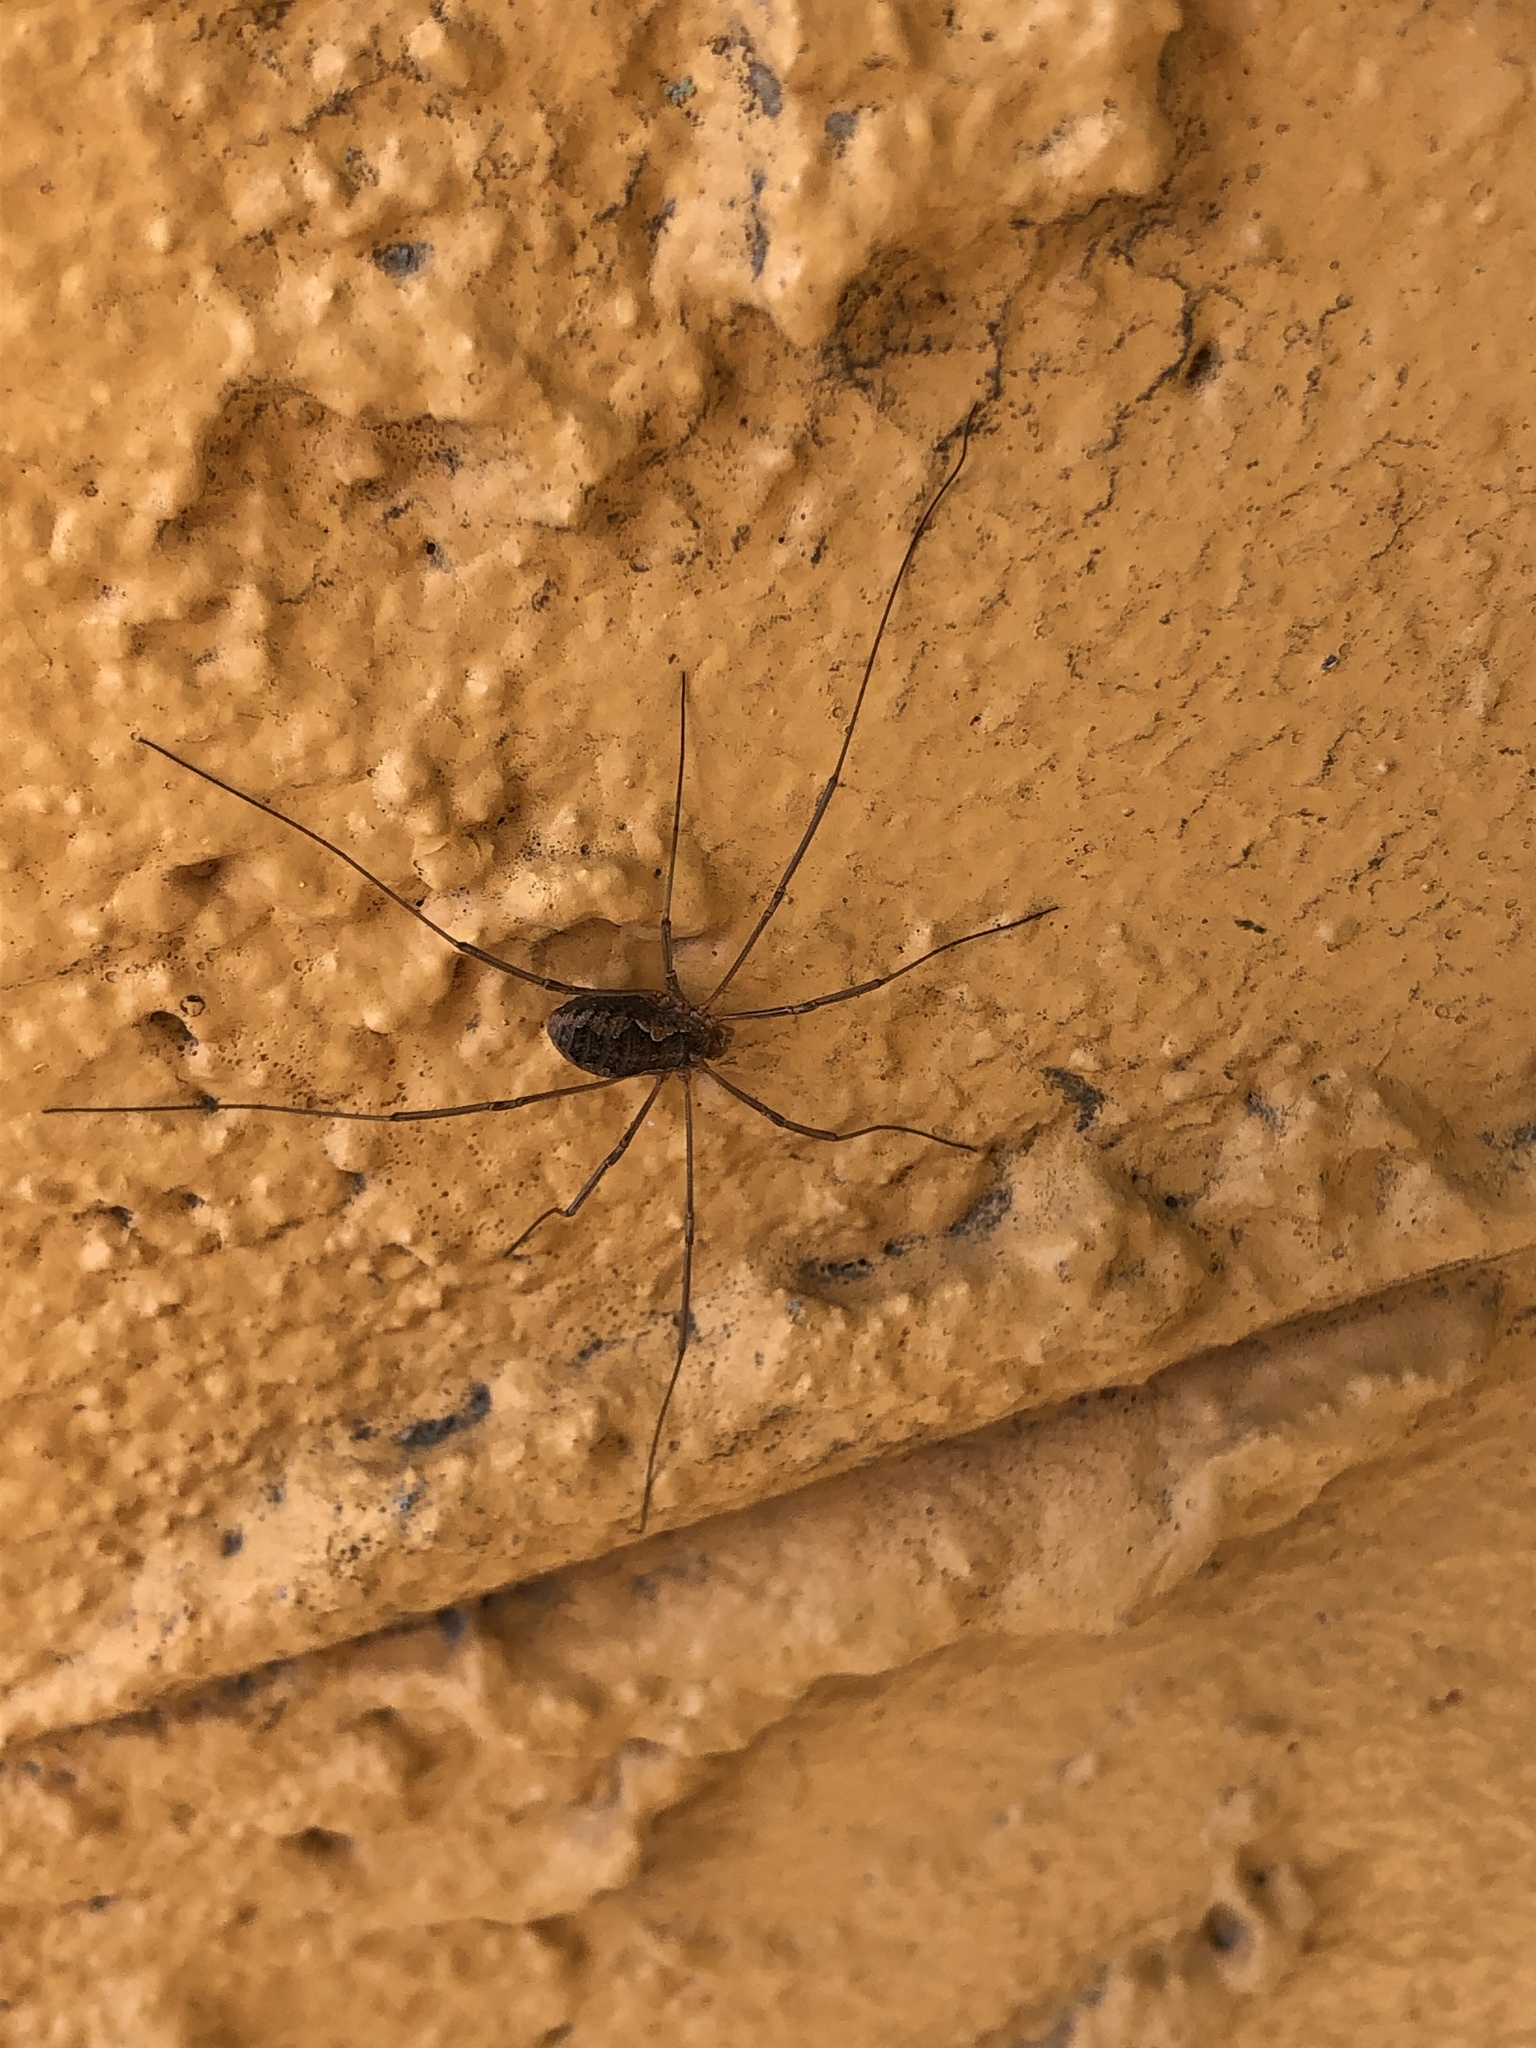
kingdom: Animalia
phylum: Arthropoda
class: Arachnida
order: Opiliones
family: Phalangiidae
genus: Phalangium
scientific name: Phalangium opilio
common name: Daddy longleg
